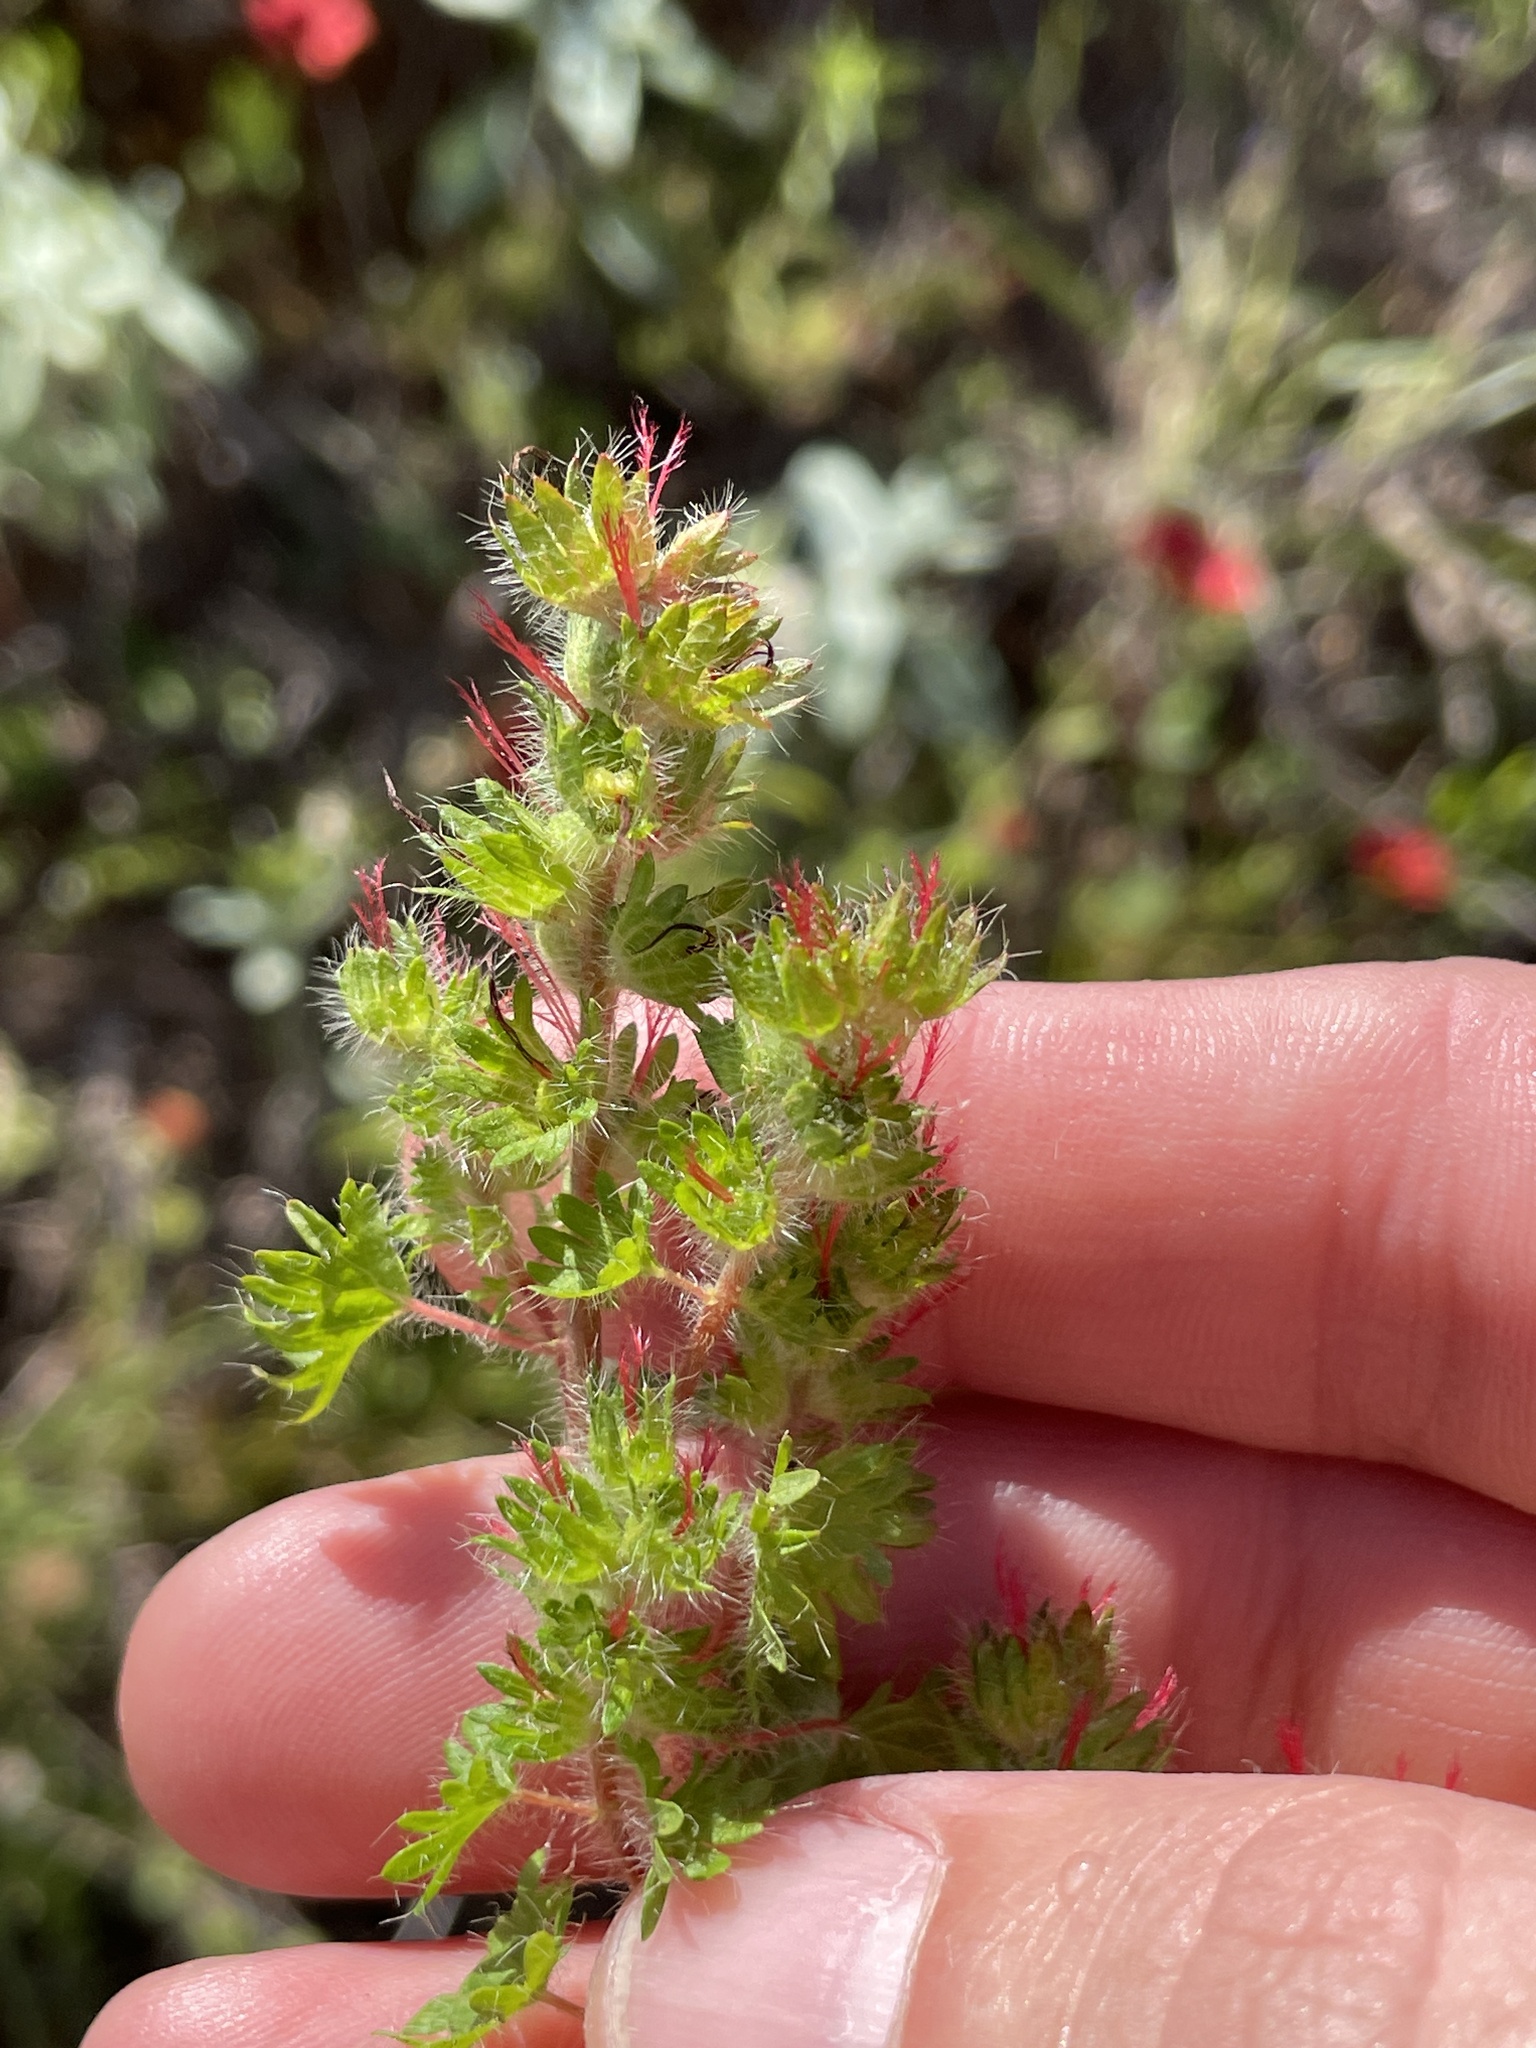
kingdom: Plantae
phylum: Tracheophyta
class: Magnoliopsida
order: Malpighiales
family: Euphorbiaceae
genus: Acalypha
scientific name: Acalypha radians
